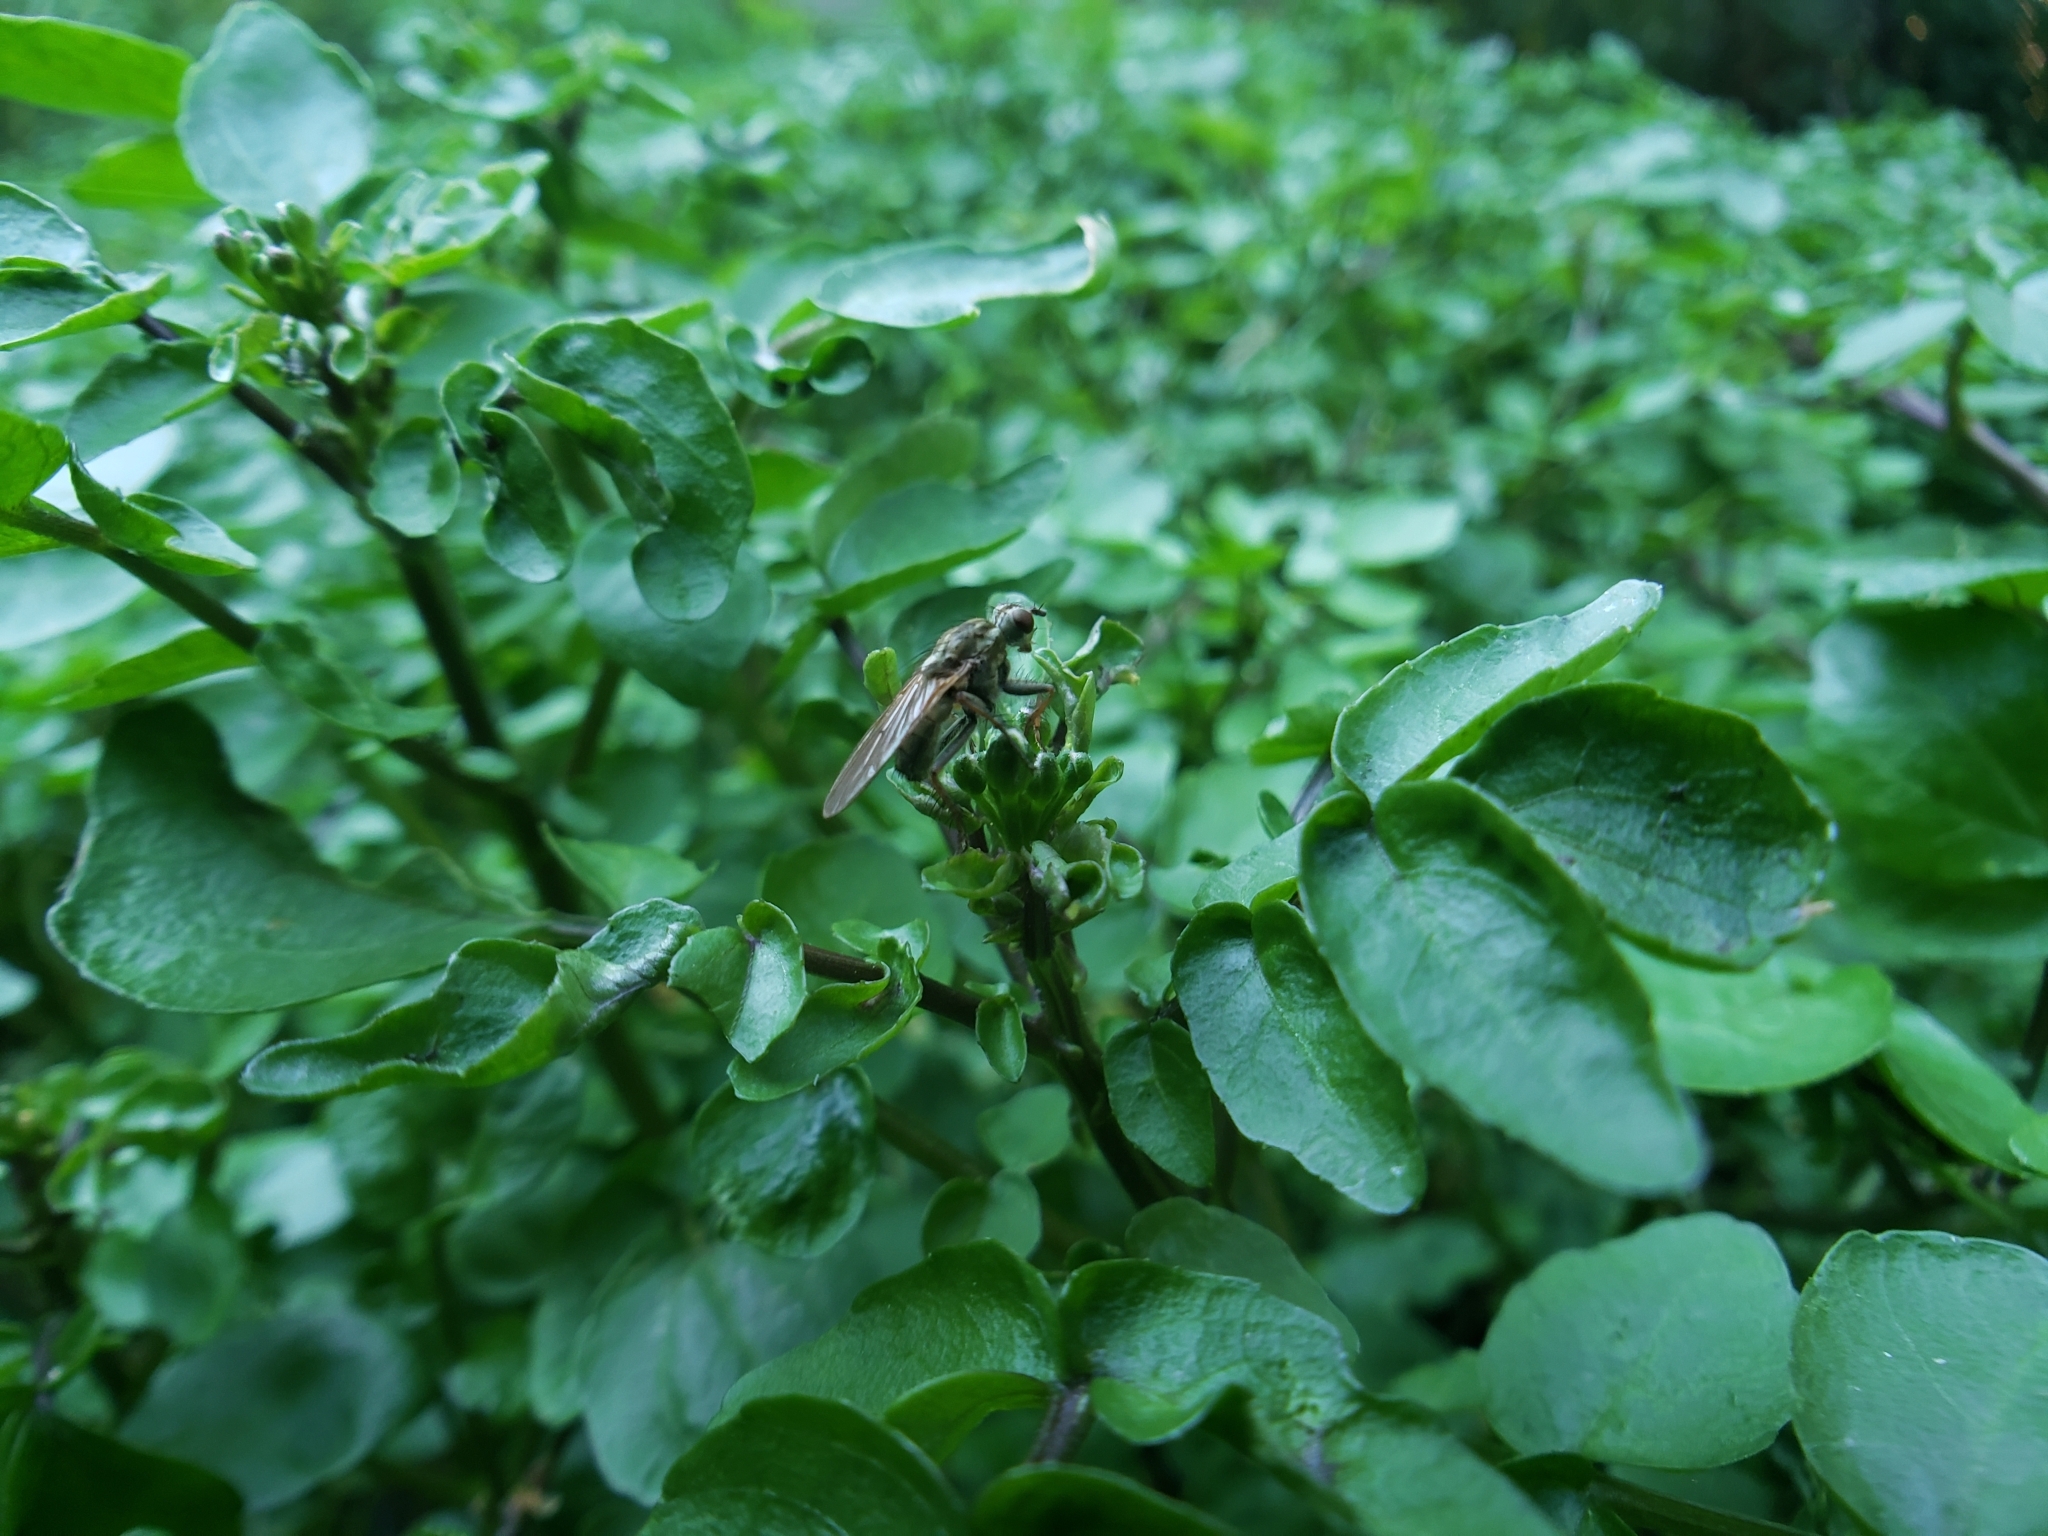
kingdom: Animalia
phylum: Arthropoda
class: Insecta
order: Diptera
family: Scathophagidae
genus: Scathophaga
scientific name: Scathophaga stercoraria
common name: Yellow dung fly
